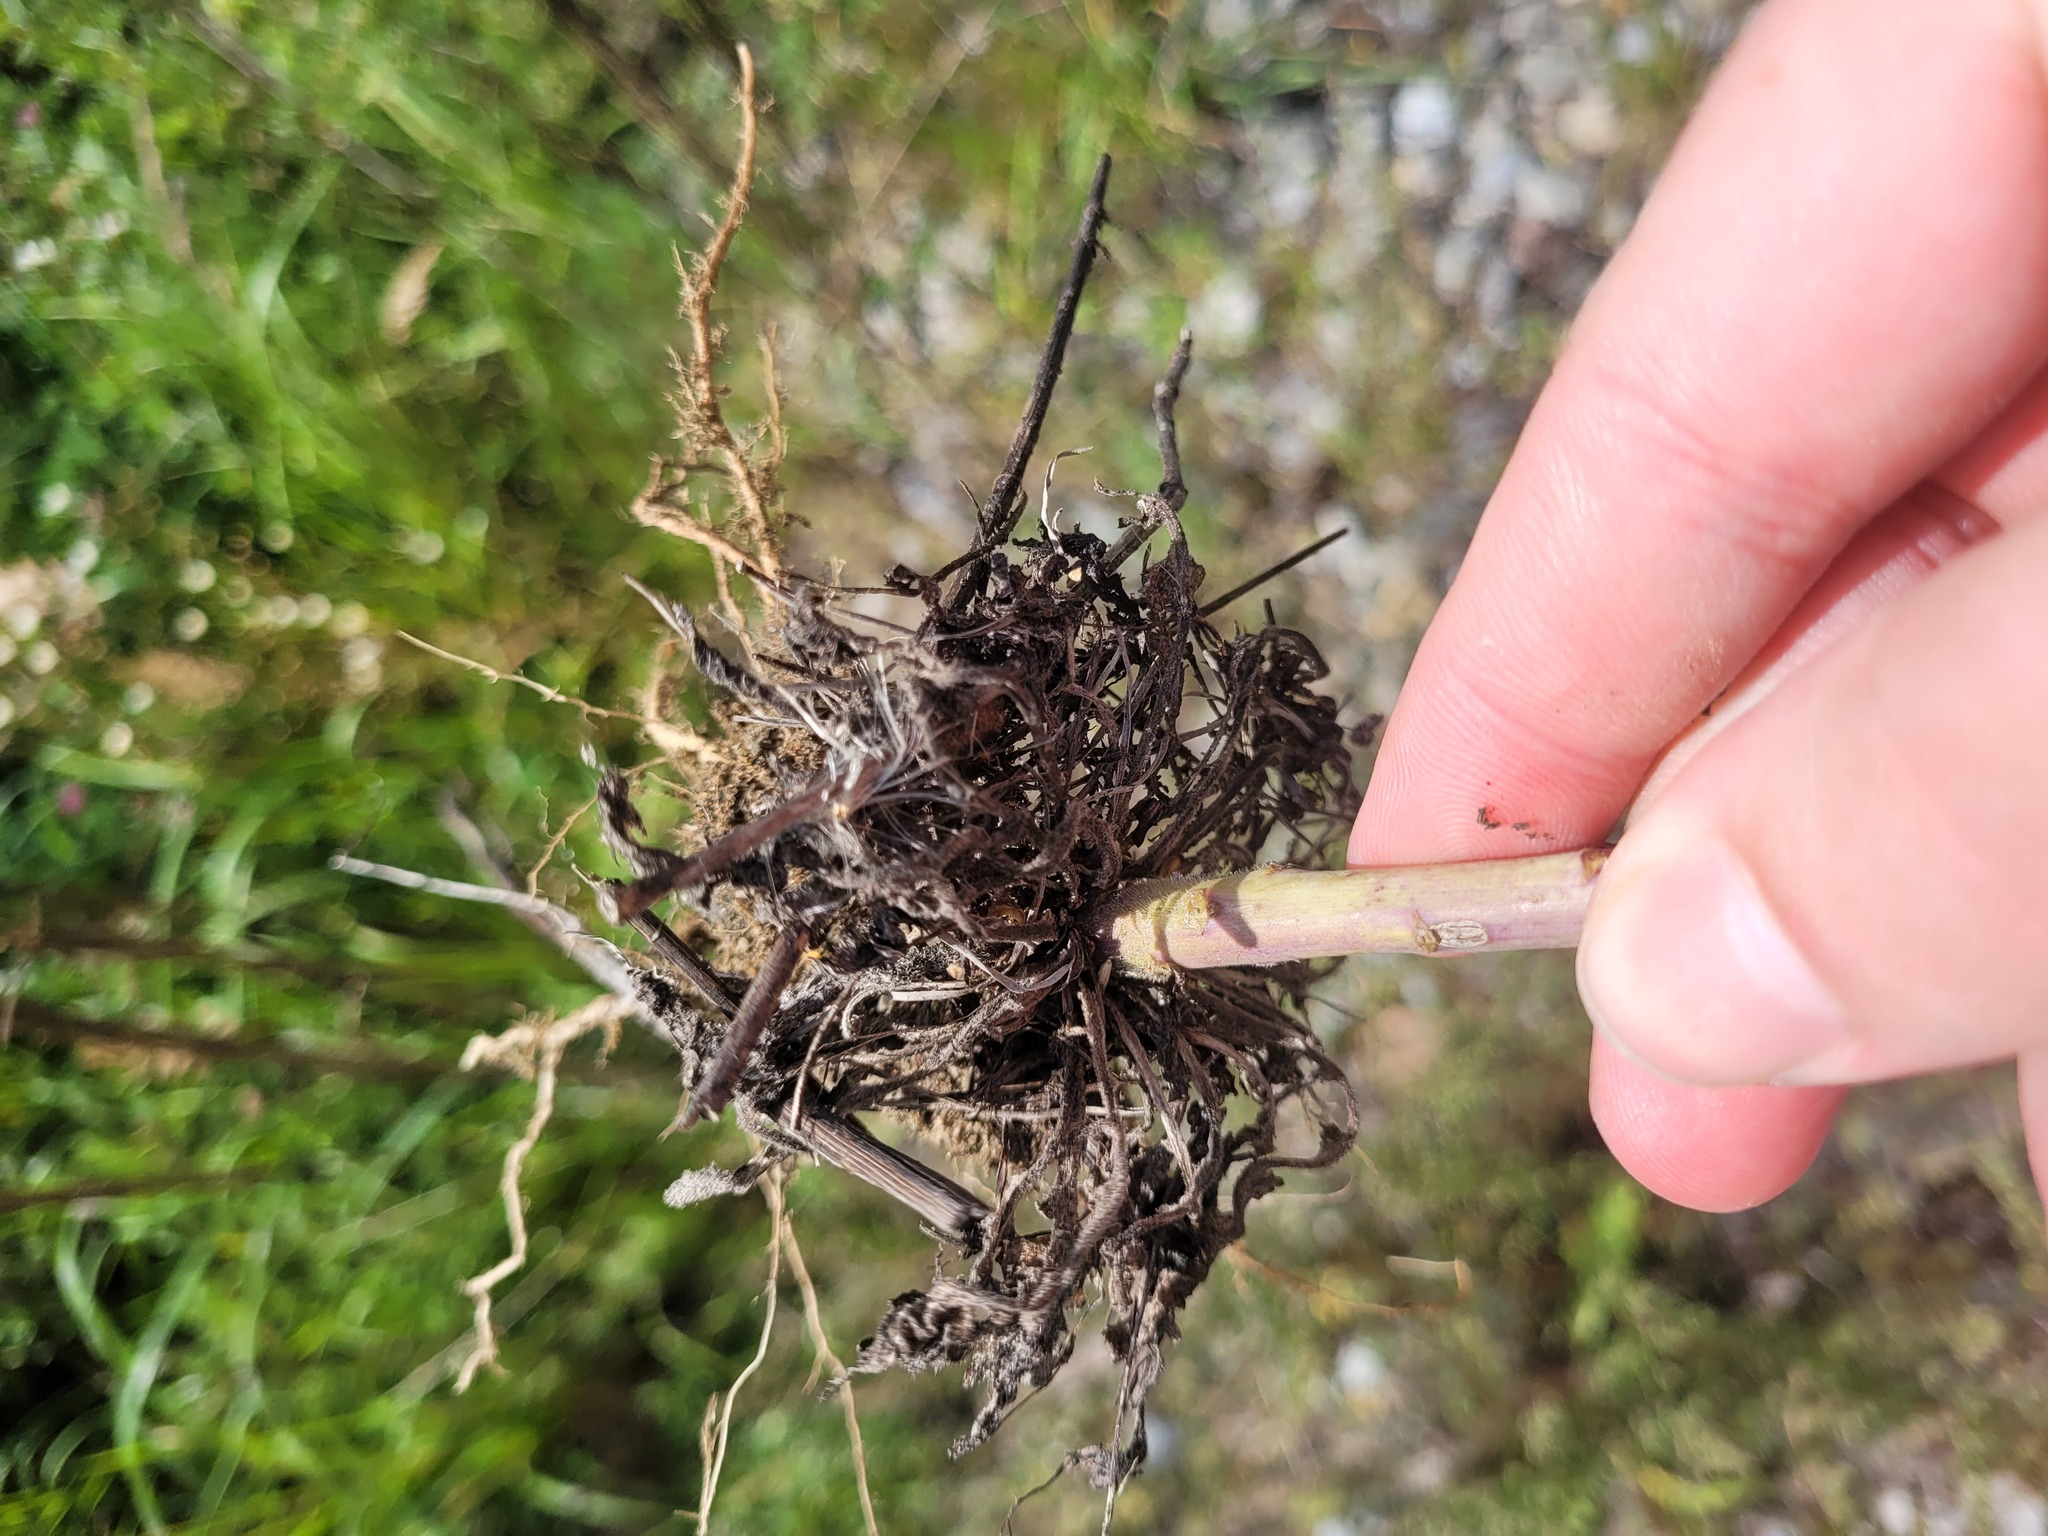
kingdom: Plantae
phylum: Tracheophyta
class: Magnoliopsida
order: Brassicales
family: Brassicaceae
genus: Erysimum
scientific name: Erysimum hieraciifolium
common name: European wallflower
